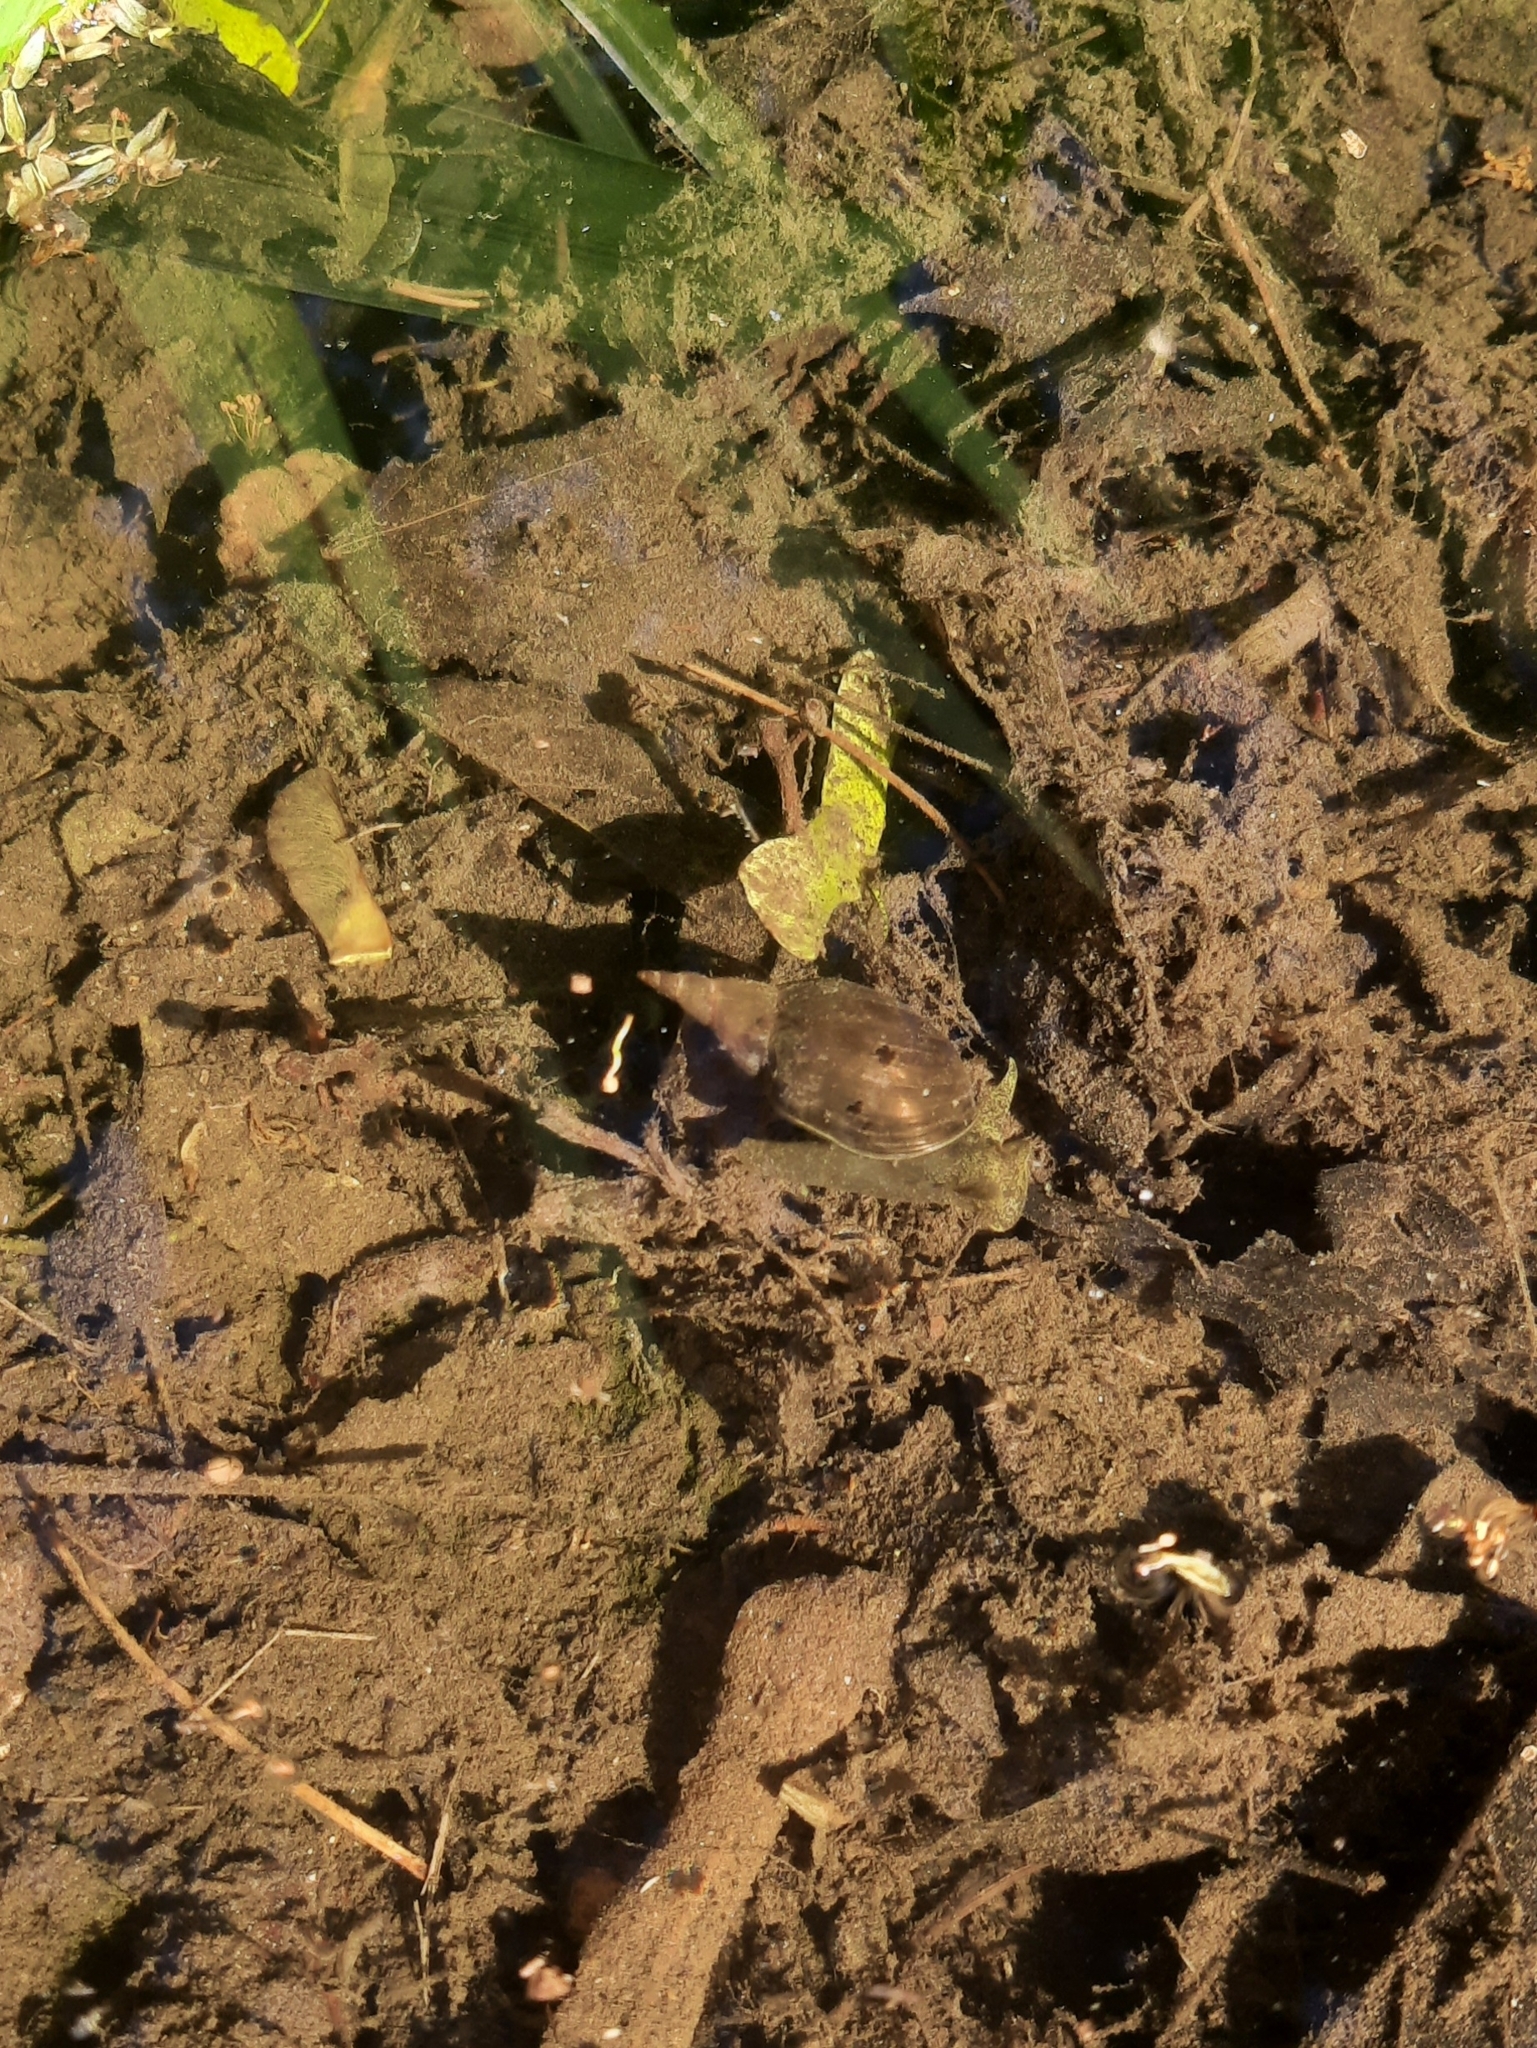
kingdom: Animalia
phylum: Mollusca
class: Gastropoda
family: Lymnaeidae
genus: Lymnaea
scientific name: Lymnaea stagnalis
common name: Great pond snail
